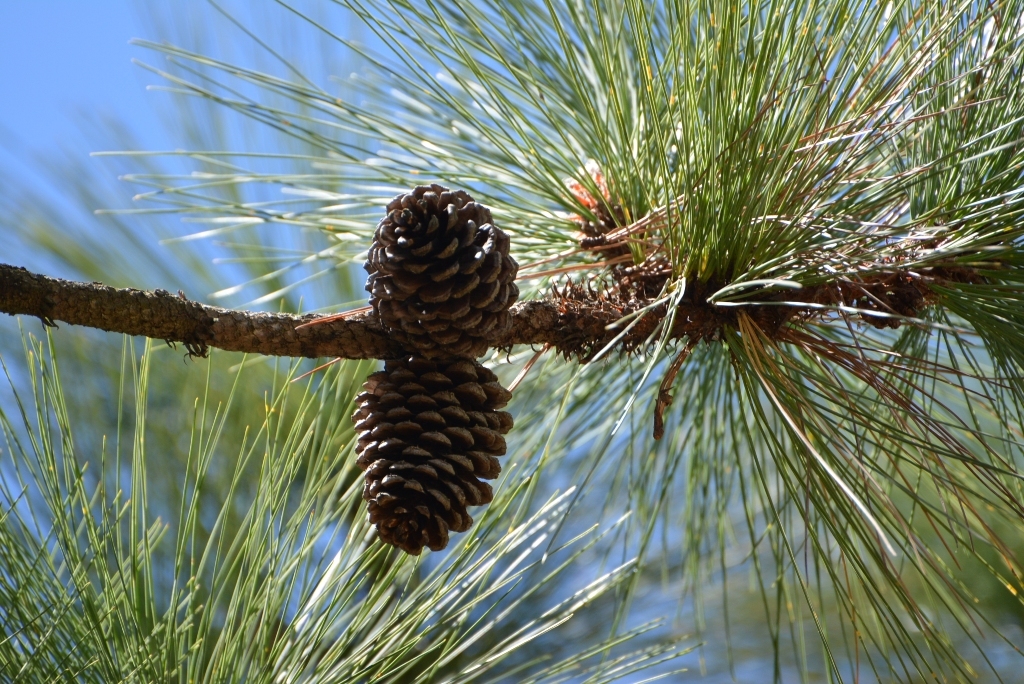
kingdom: Plantae
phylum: Tracheophyta
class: Pinopsida
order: Pinales
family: Pinaceae
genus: Pinus
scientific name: Pinus montezumae
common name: Montezuma pine
